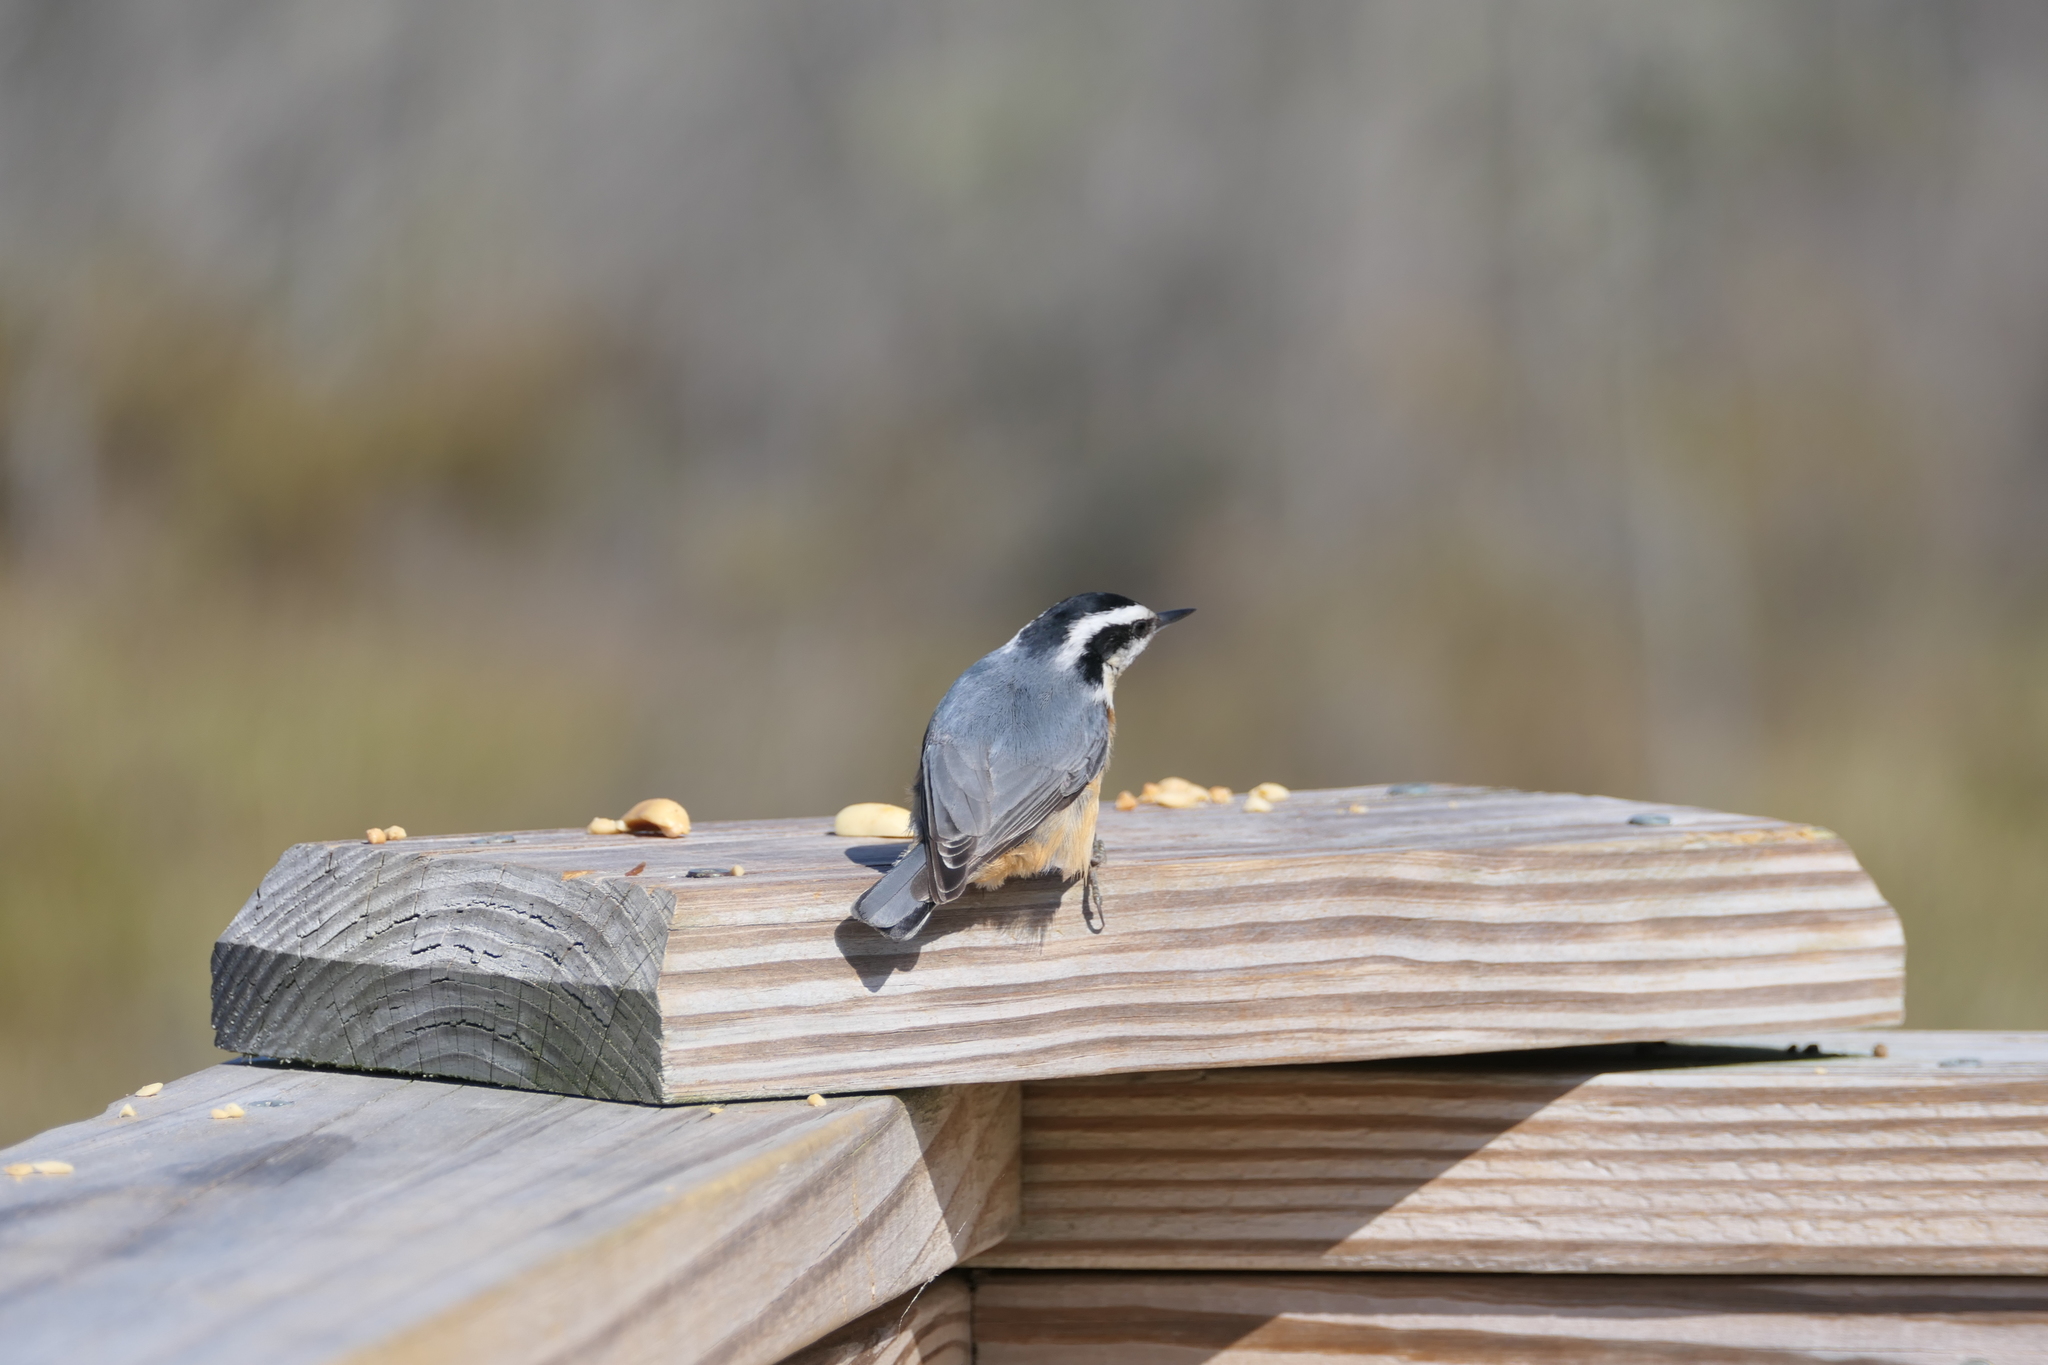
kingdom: Animalia
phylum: Chordata
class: Aves
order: Passeriformes
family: Sittidae
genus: Sitta
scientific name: Sitta canadensis
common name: Red-breasted nuthatch
